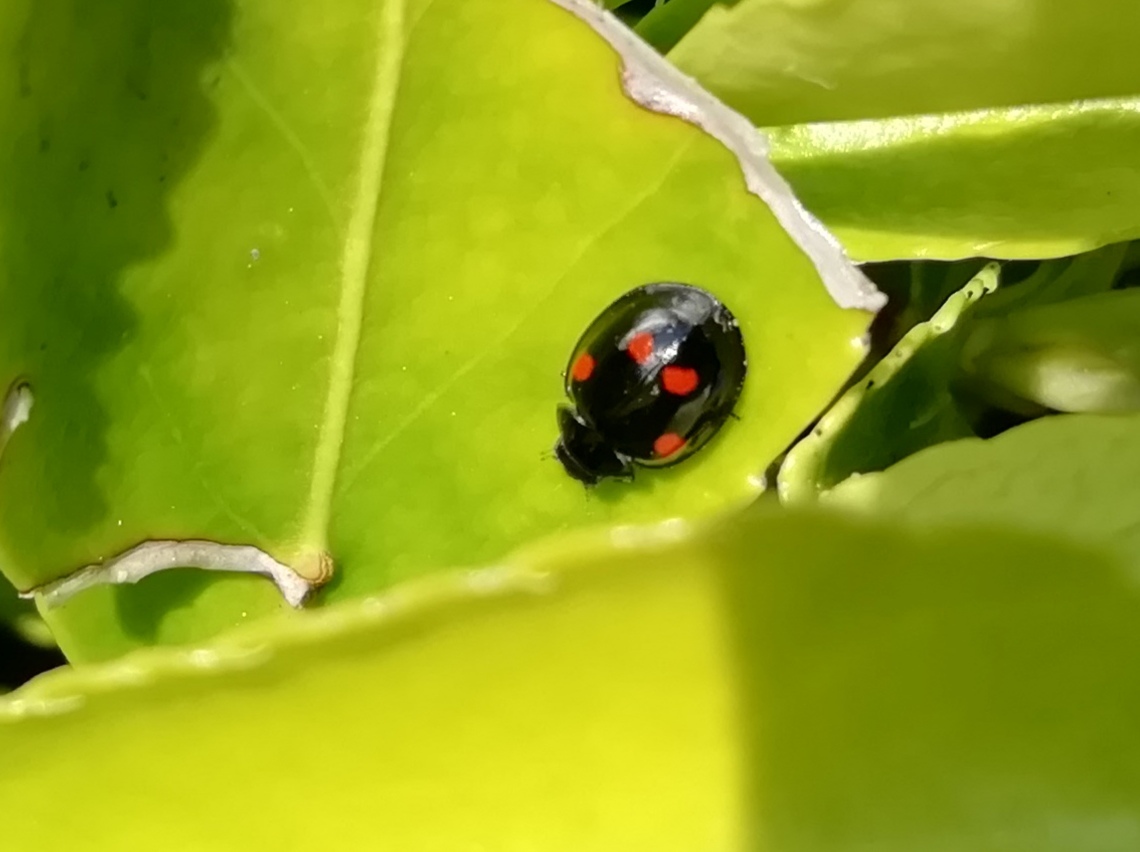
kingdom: Animalia
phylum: Arthropoda
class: Insecta
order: Coleoptera
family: Coccinellidae
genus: Brumus
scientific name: Brumus quadripustulatus
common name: Ladybird beetle
